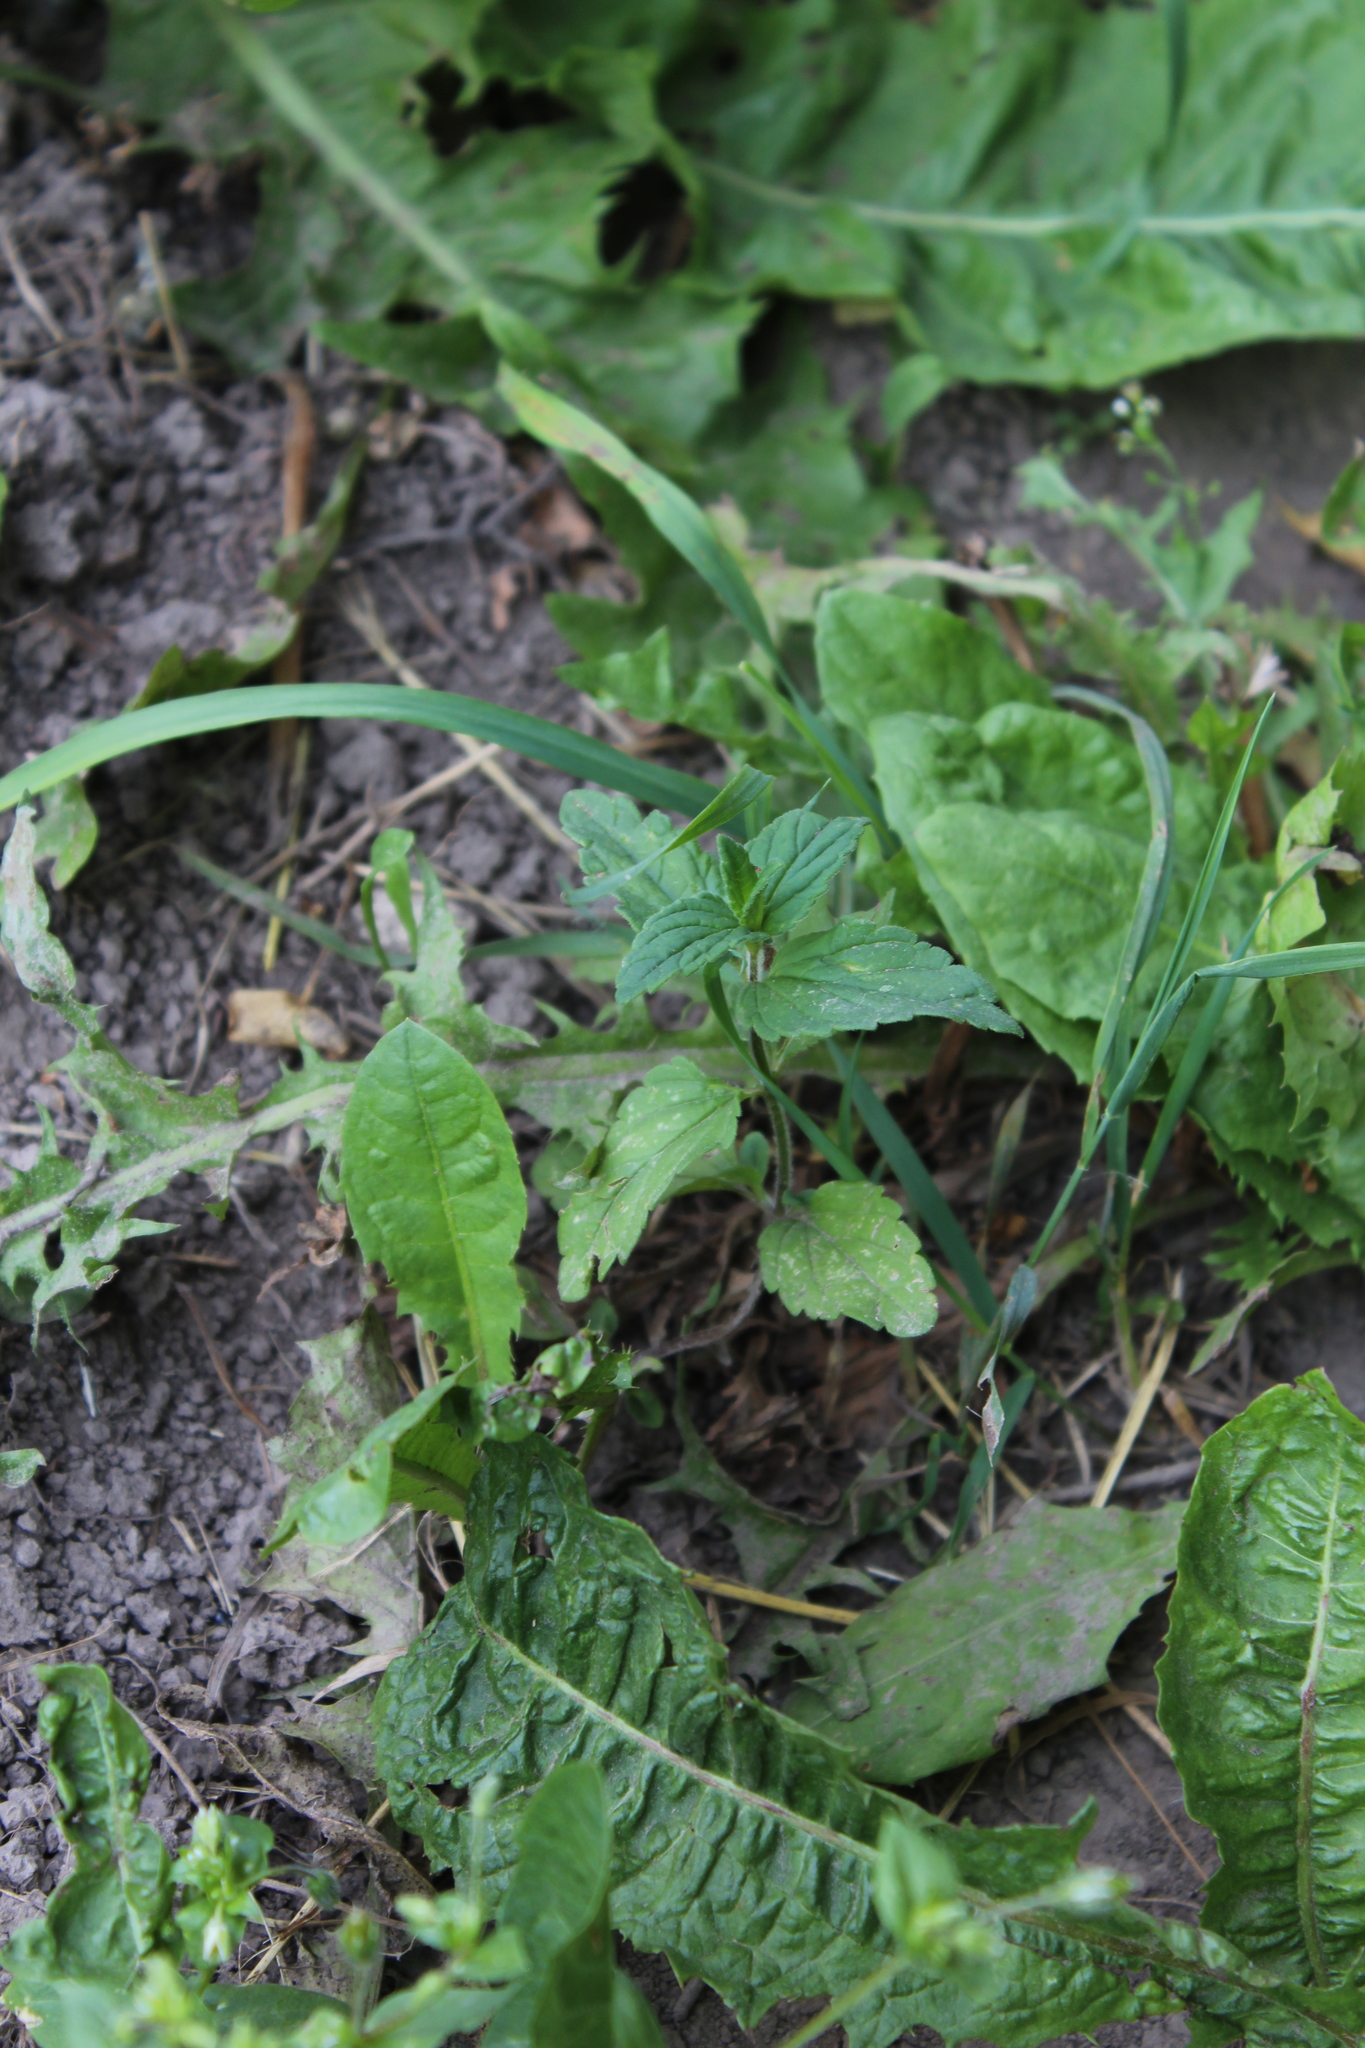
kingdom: Plantae
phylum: Tracheophyta
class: Magnoliopsida
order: Lamiales
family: Plantaginaceae
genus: Veronica
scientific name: Veronica chamaedrys
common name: Germander speedwell
